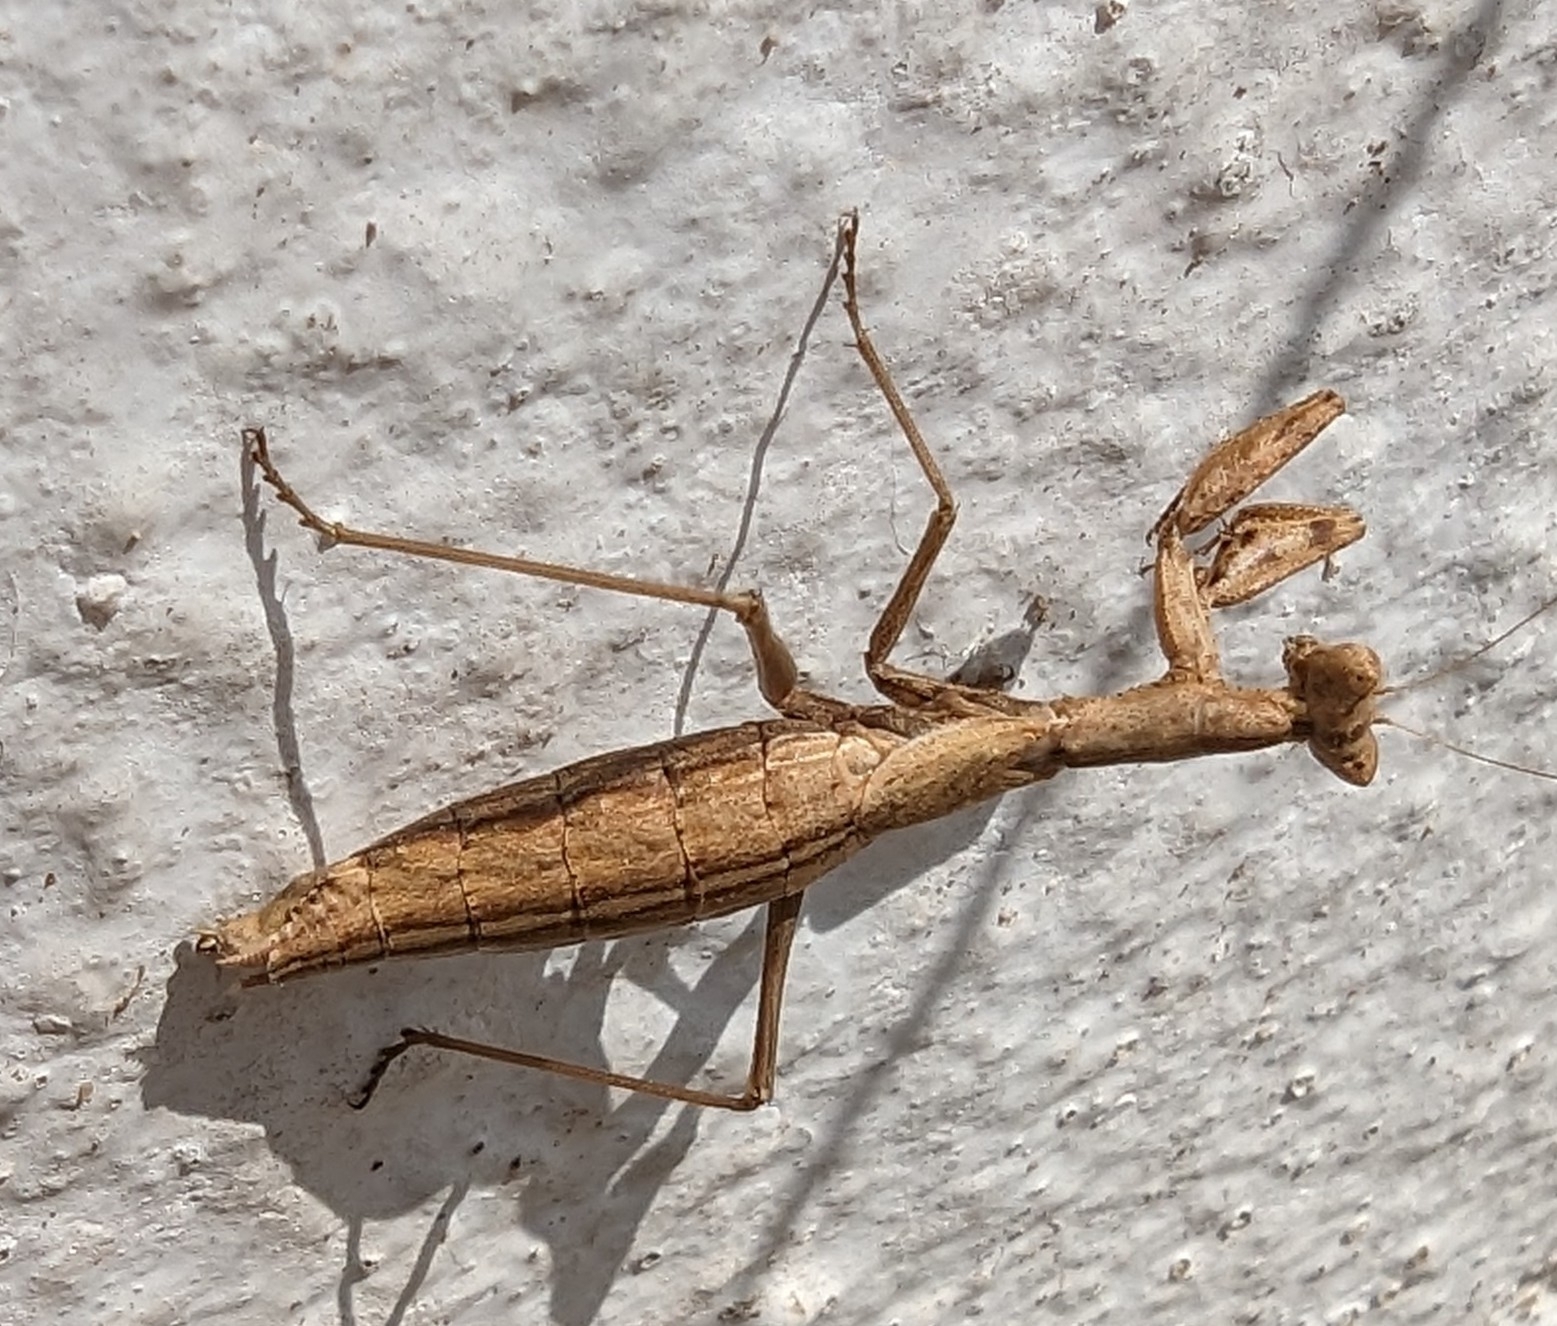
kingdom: Animalia
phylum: Arthropoda
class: Insecta
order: Mantodea
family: Amelidae
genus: Ameles
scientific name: Ameles decolor
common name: Dwarf mantis
